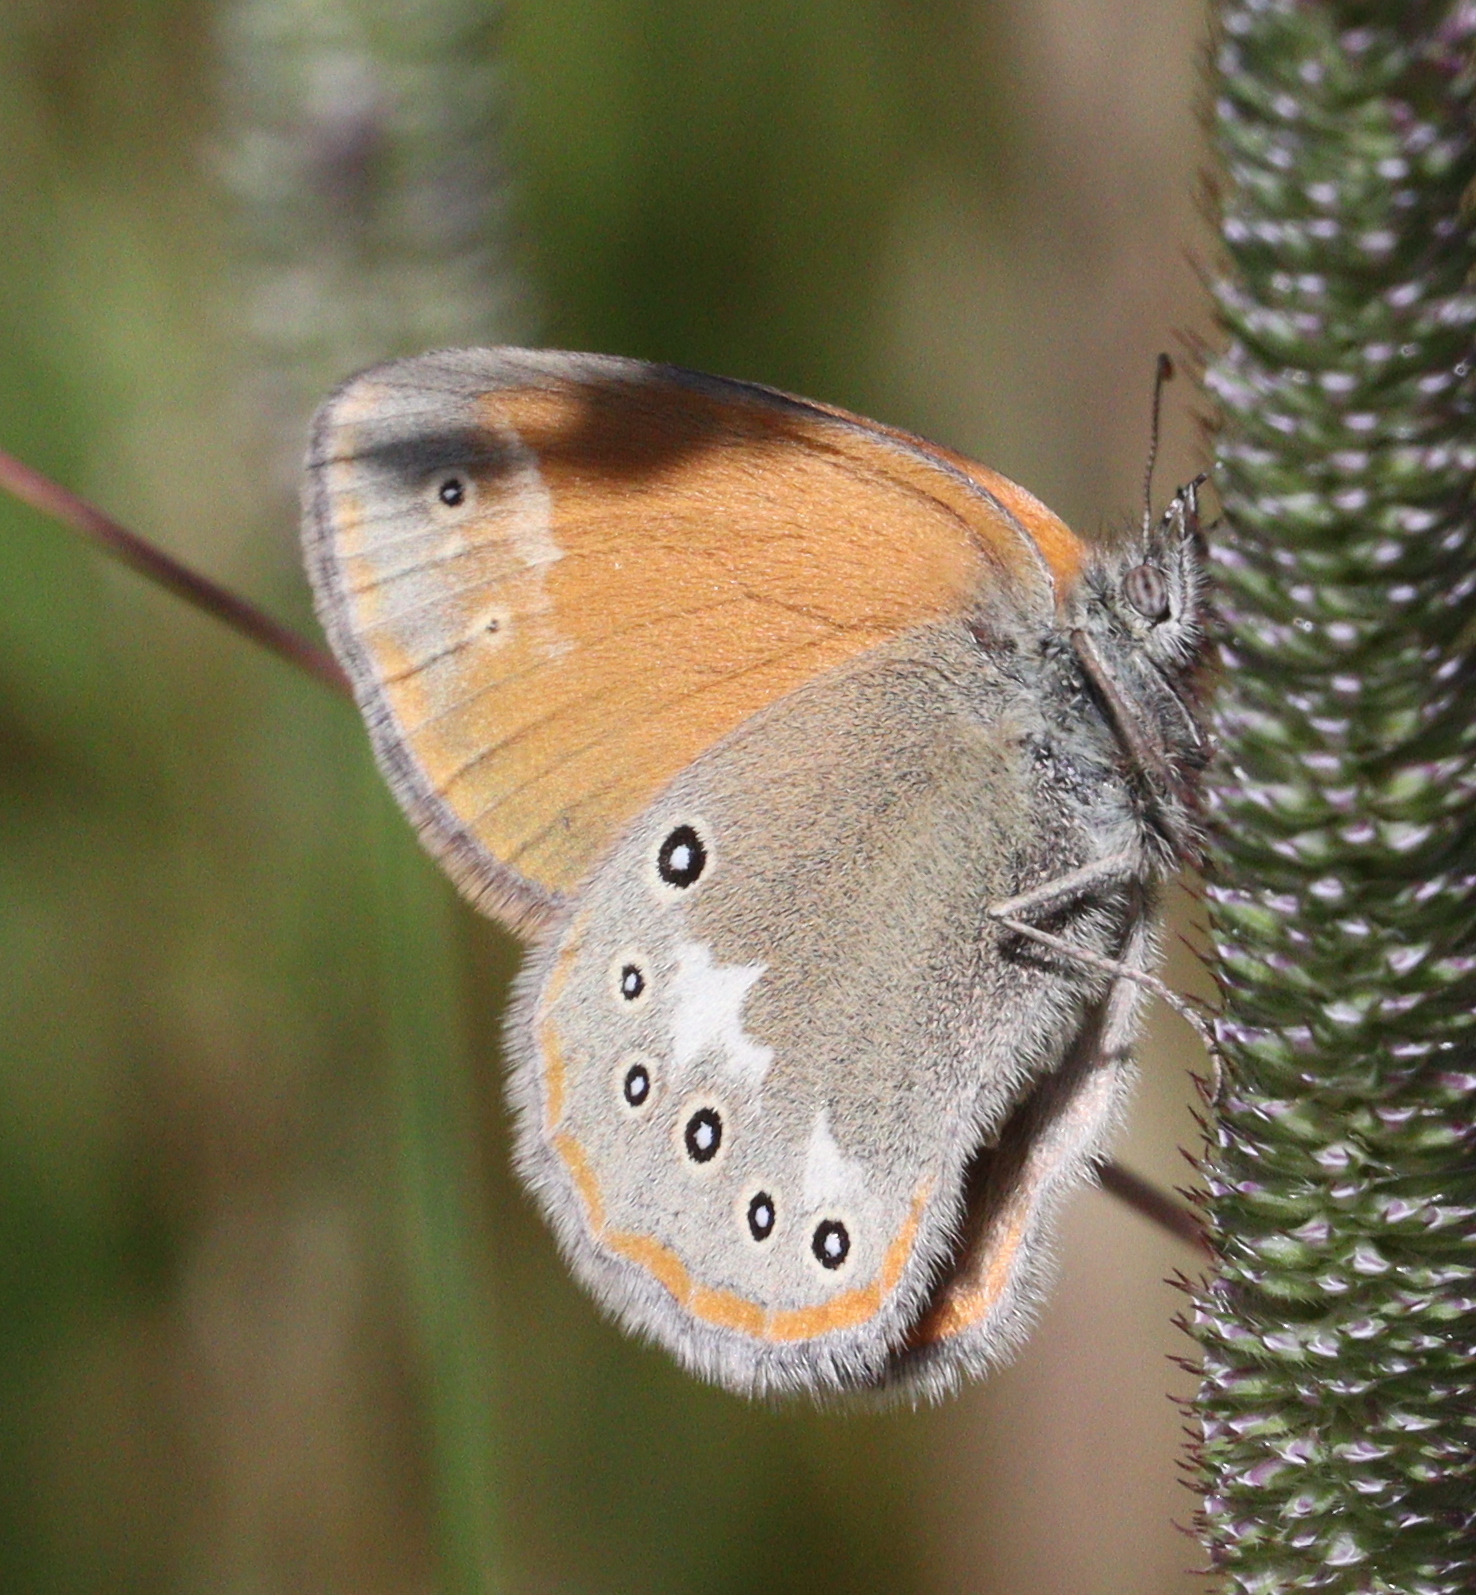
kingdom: Animalia
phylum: Arthropoda
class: Insecta
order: Lepidoptera
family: Nymphalidae
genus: Coenonympha
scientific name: Coenonympha iphis
